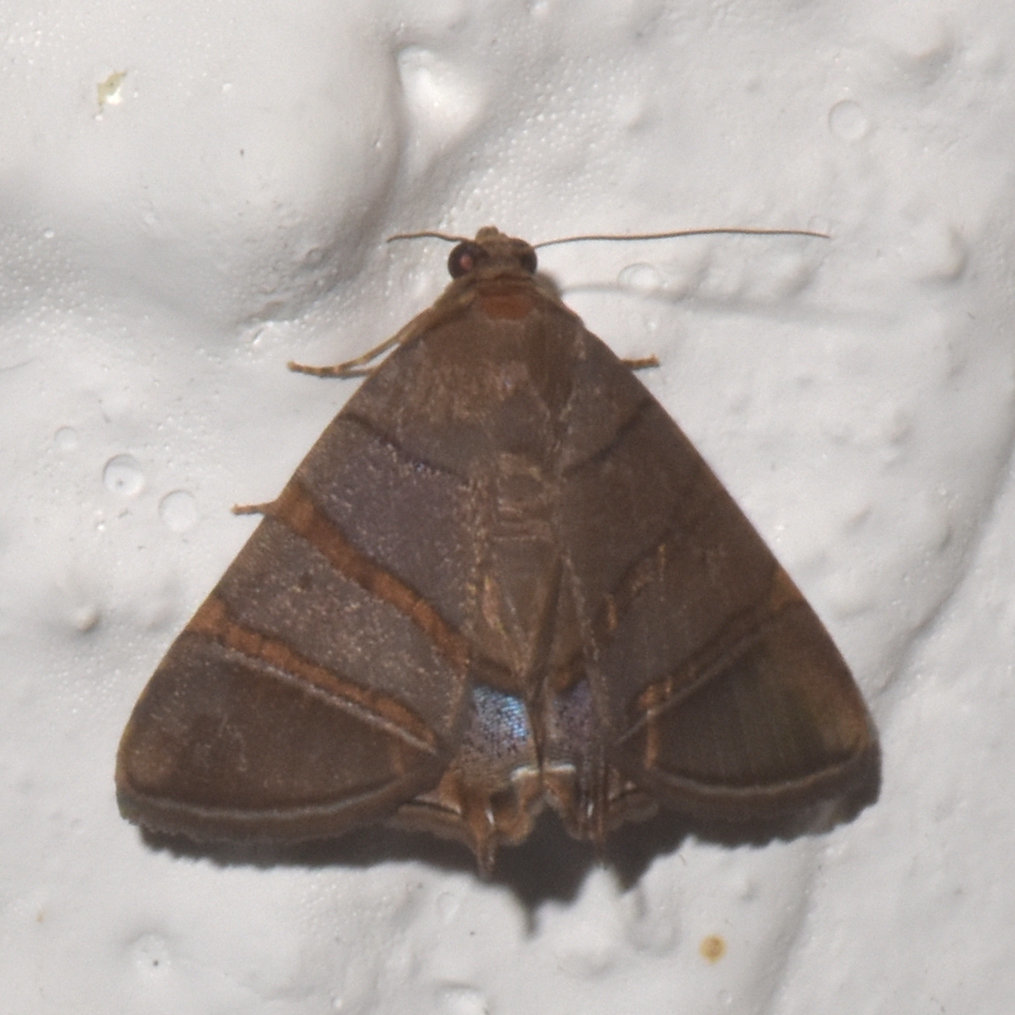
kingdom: Animalia
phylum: Arthropoda
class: Insecta
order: Lepidoptera
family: Erebidae
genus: Eulepidotis
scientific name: Eulepidotis addens
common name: Eulepidotis moth
